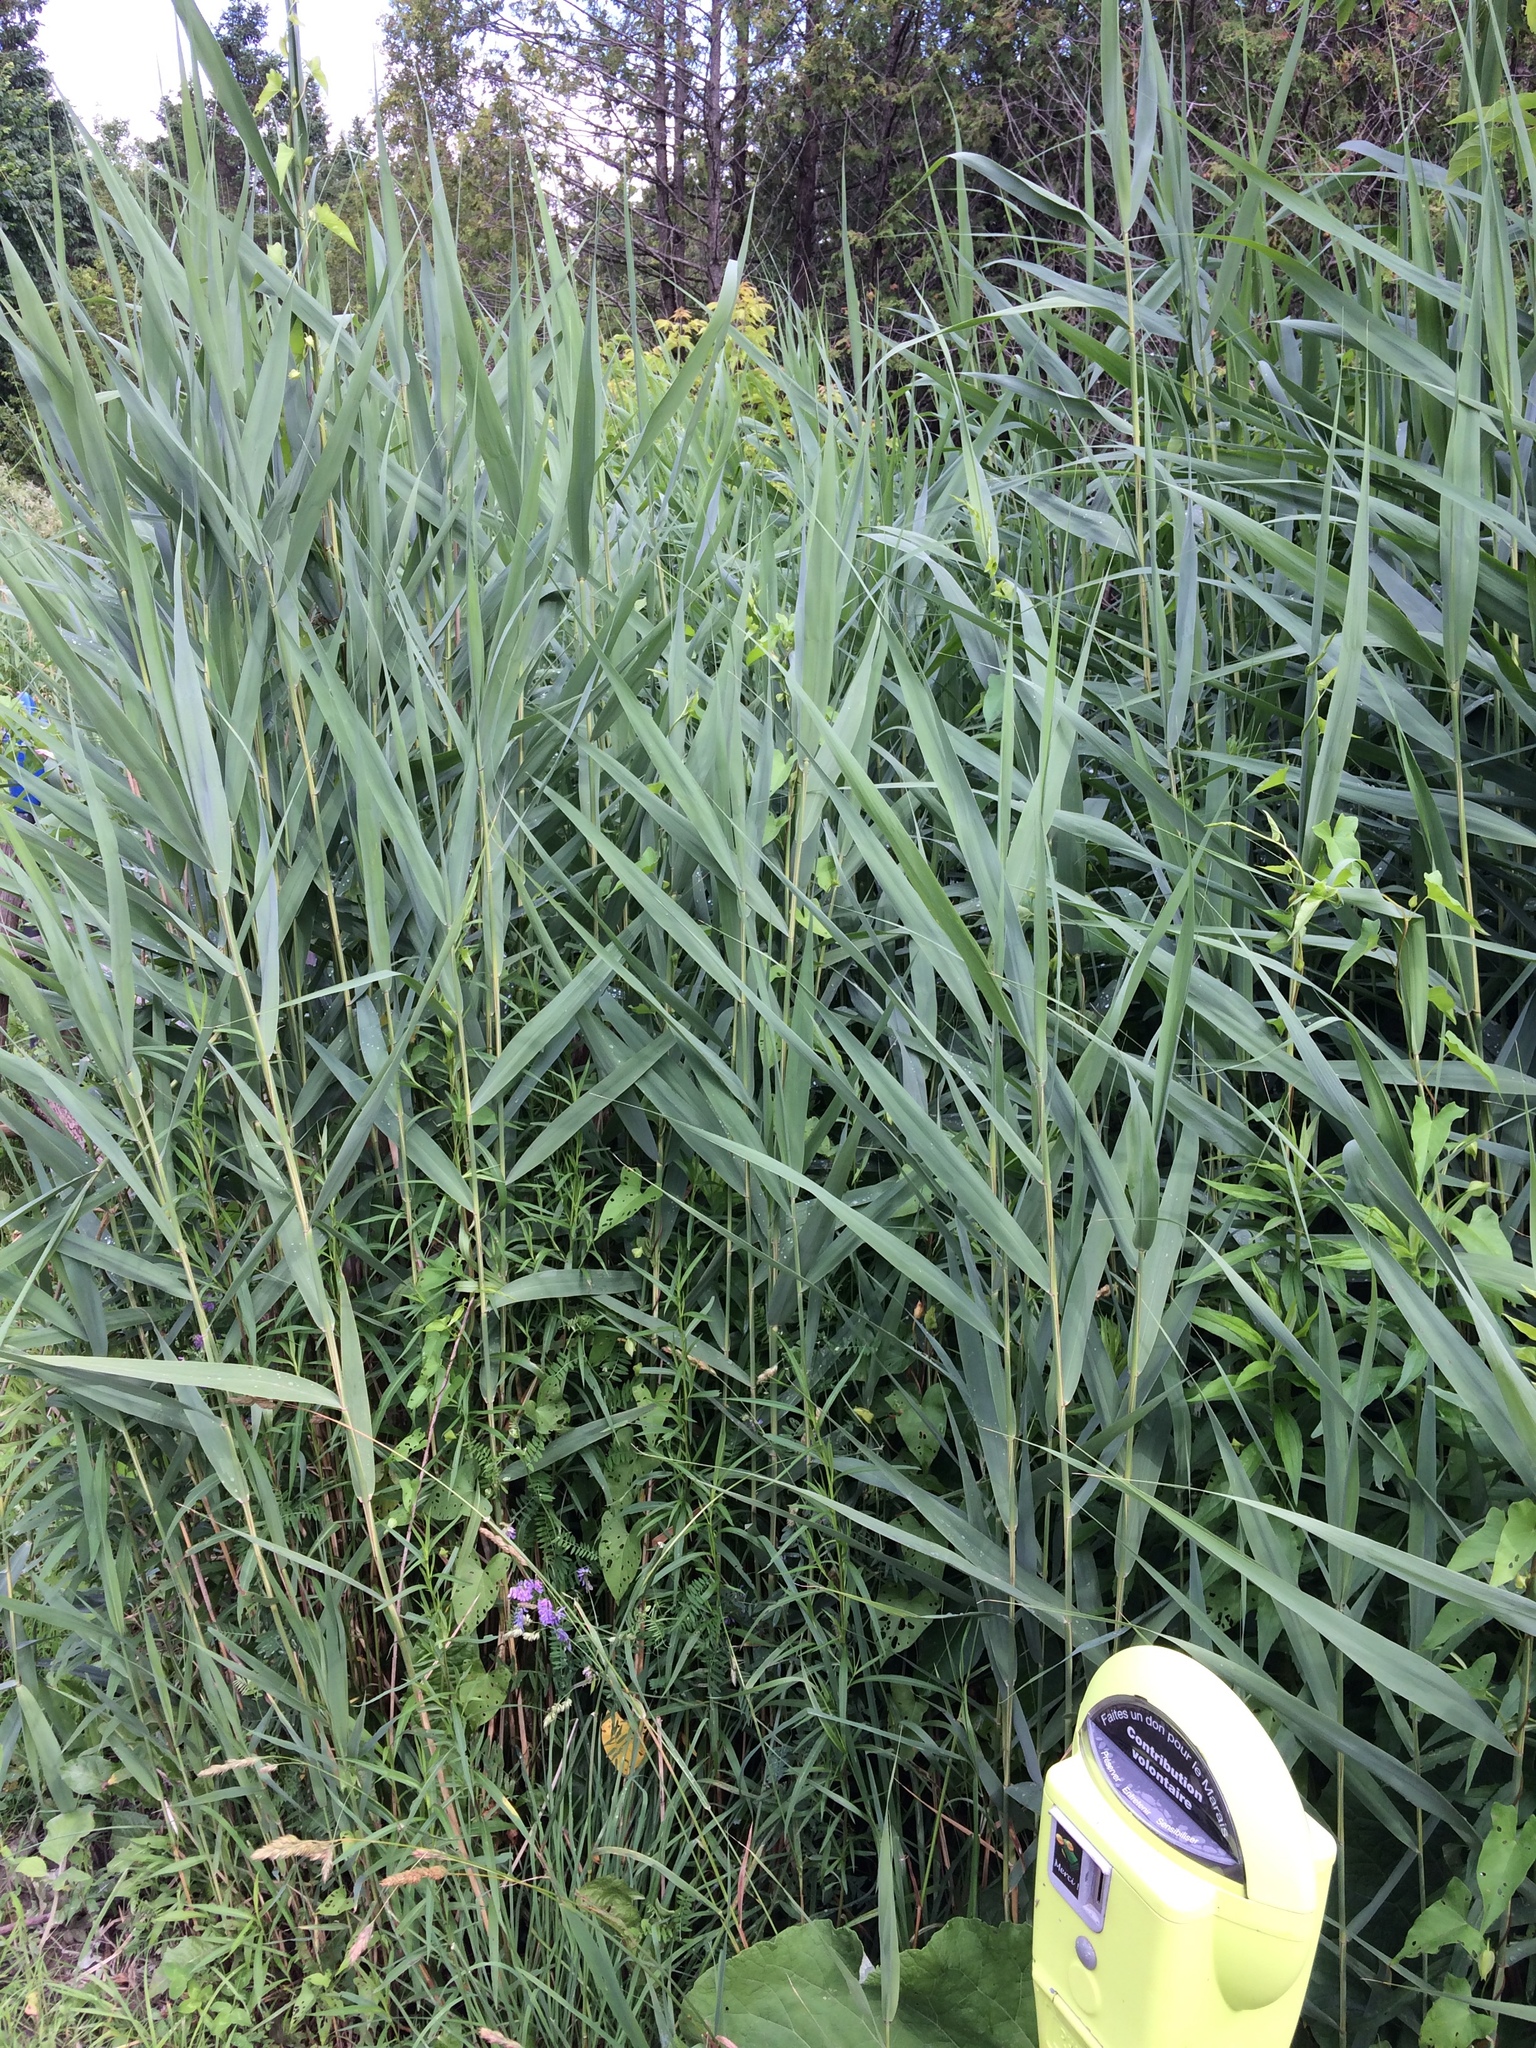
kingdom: Plantae
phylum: Tracheophyta
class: Liliopsida
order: Poales
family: Poaceae
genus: Phragmites
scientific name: Phragmites australis
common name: Common reed
